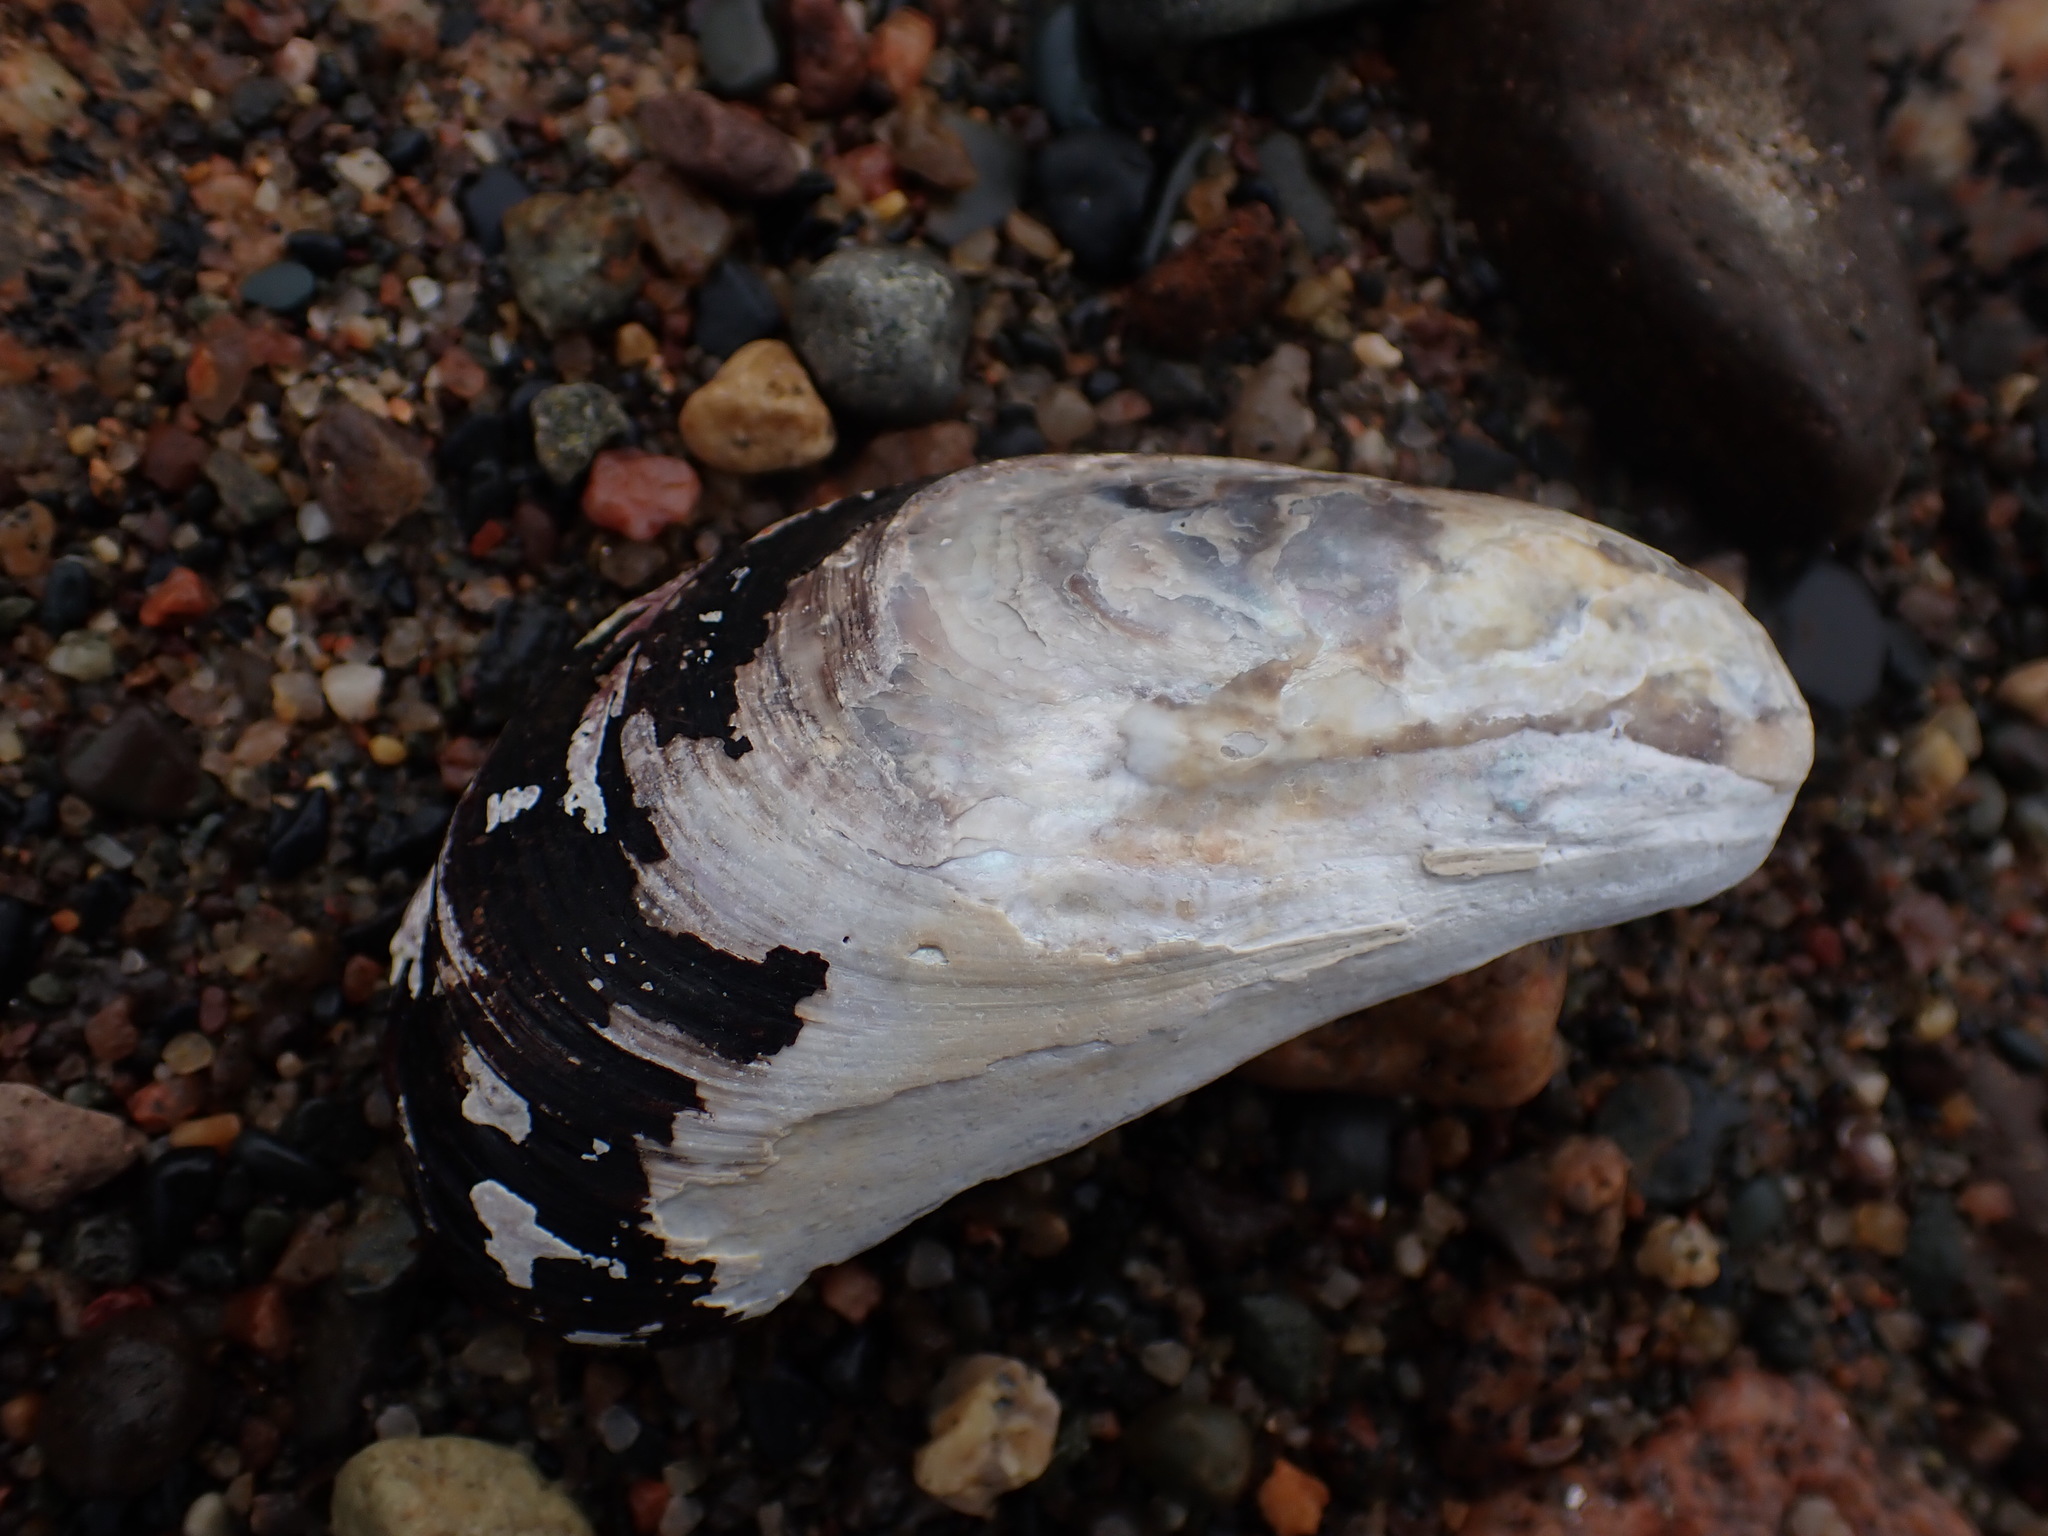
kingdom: Animalia
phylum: Mollusca
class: Bivalvia
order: Mytilida
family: Mytilidae
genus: Modiolus
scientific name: Modiolus modiolus
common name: Horse-mussel
